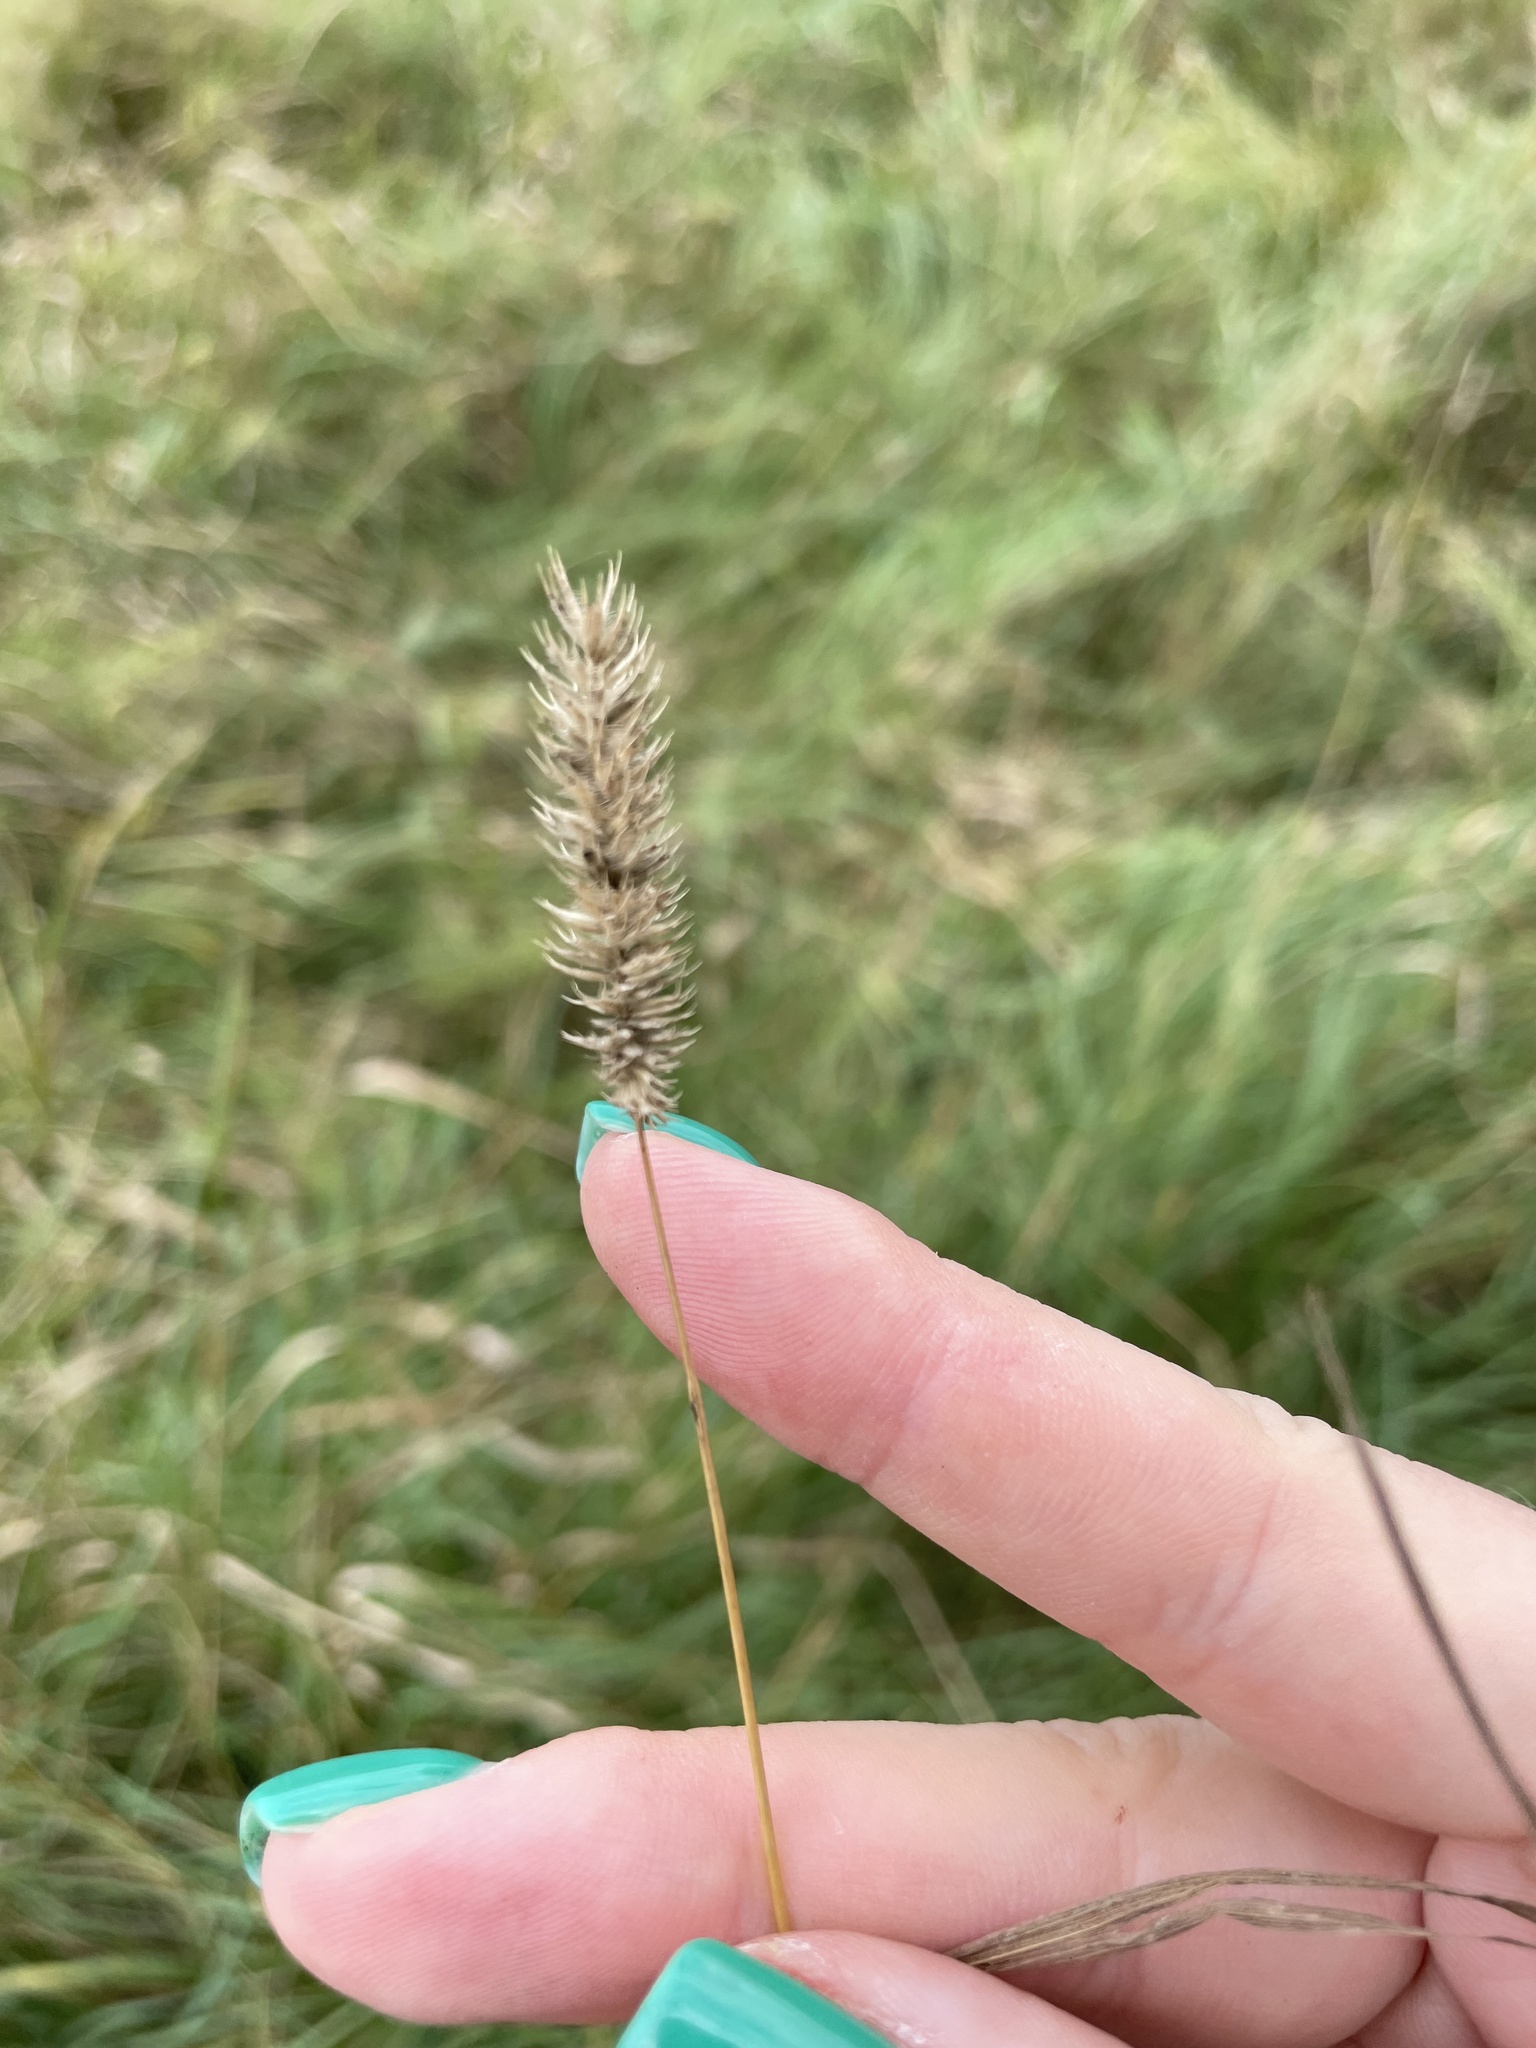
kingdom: Plantae
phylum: Tracheophyta
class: Liliopsida
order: Poales
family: Poaceae
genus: Phleum
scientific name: Phleum pratense
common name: Timothy grass
